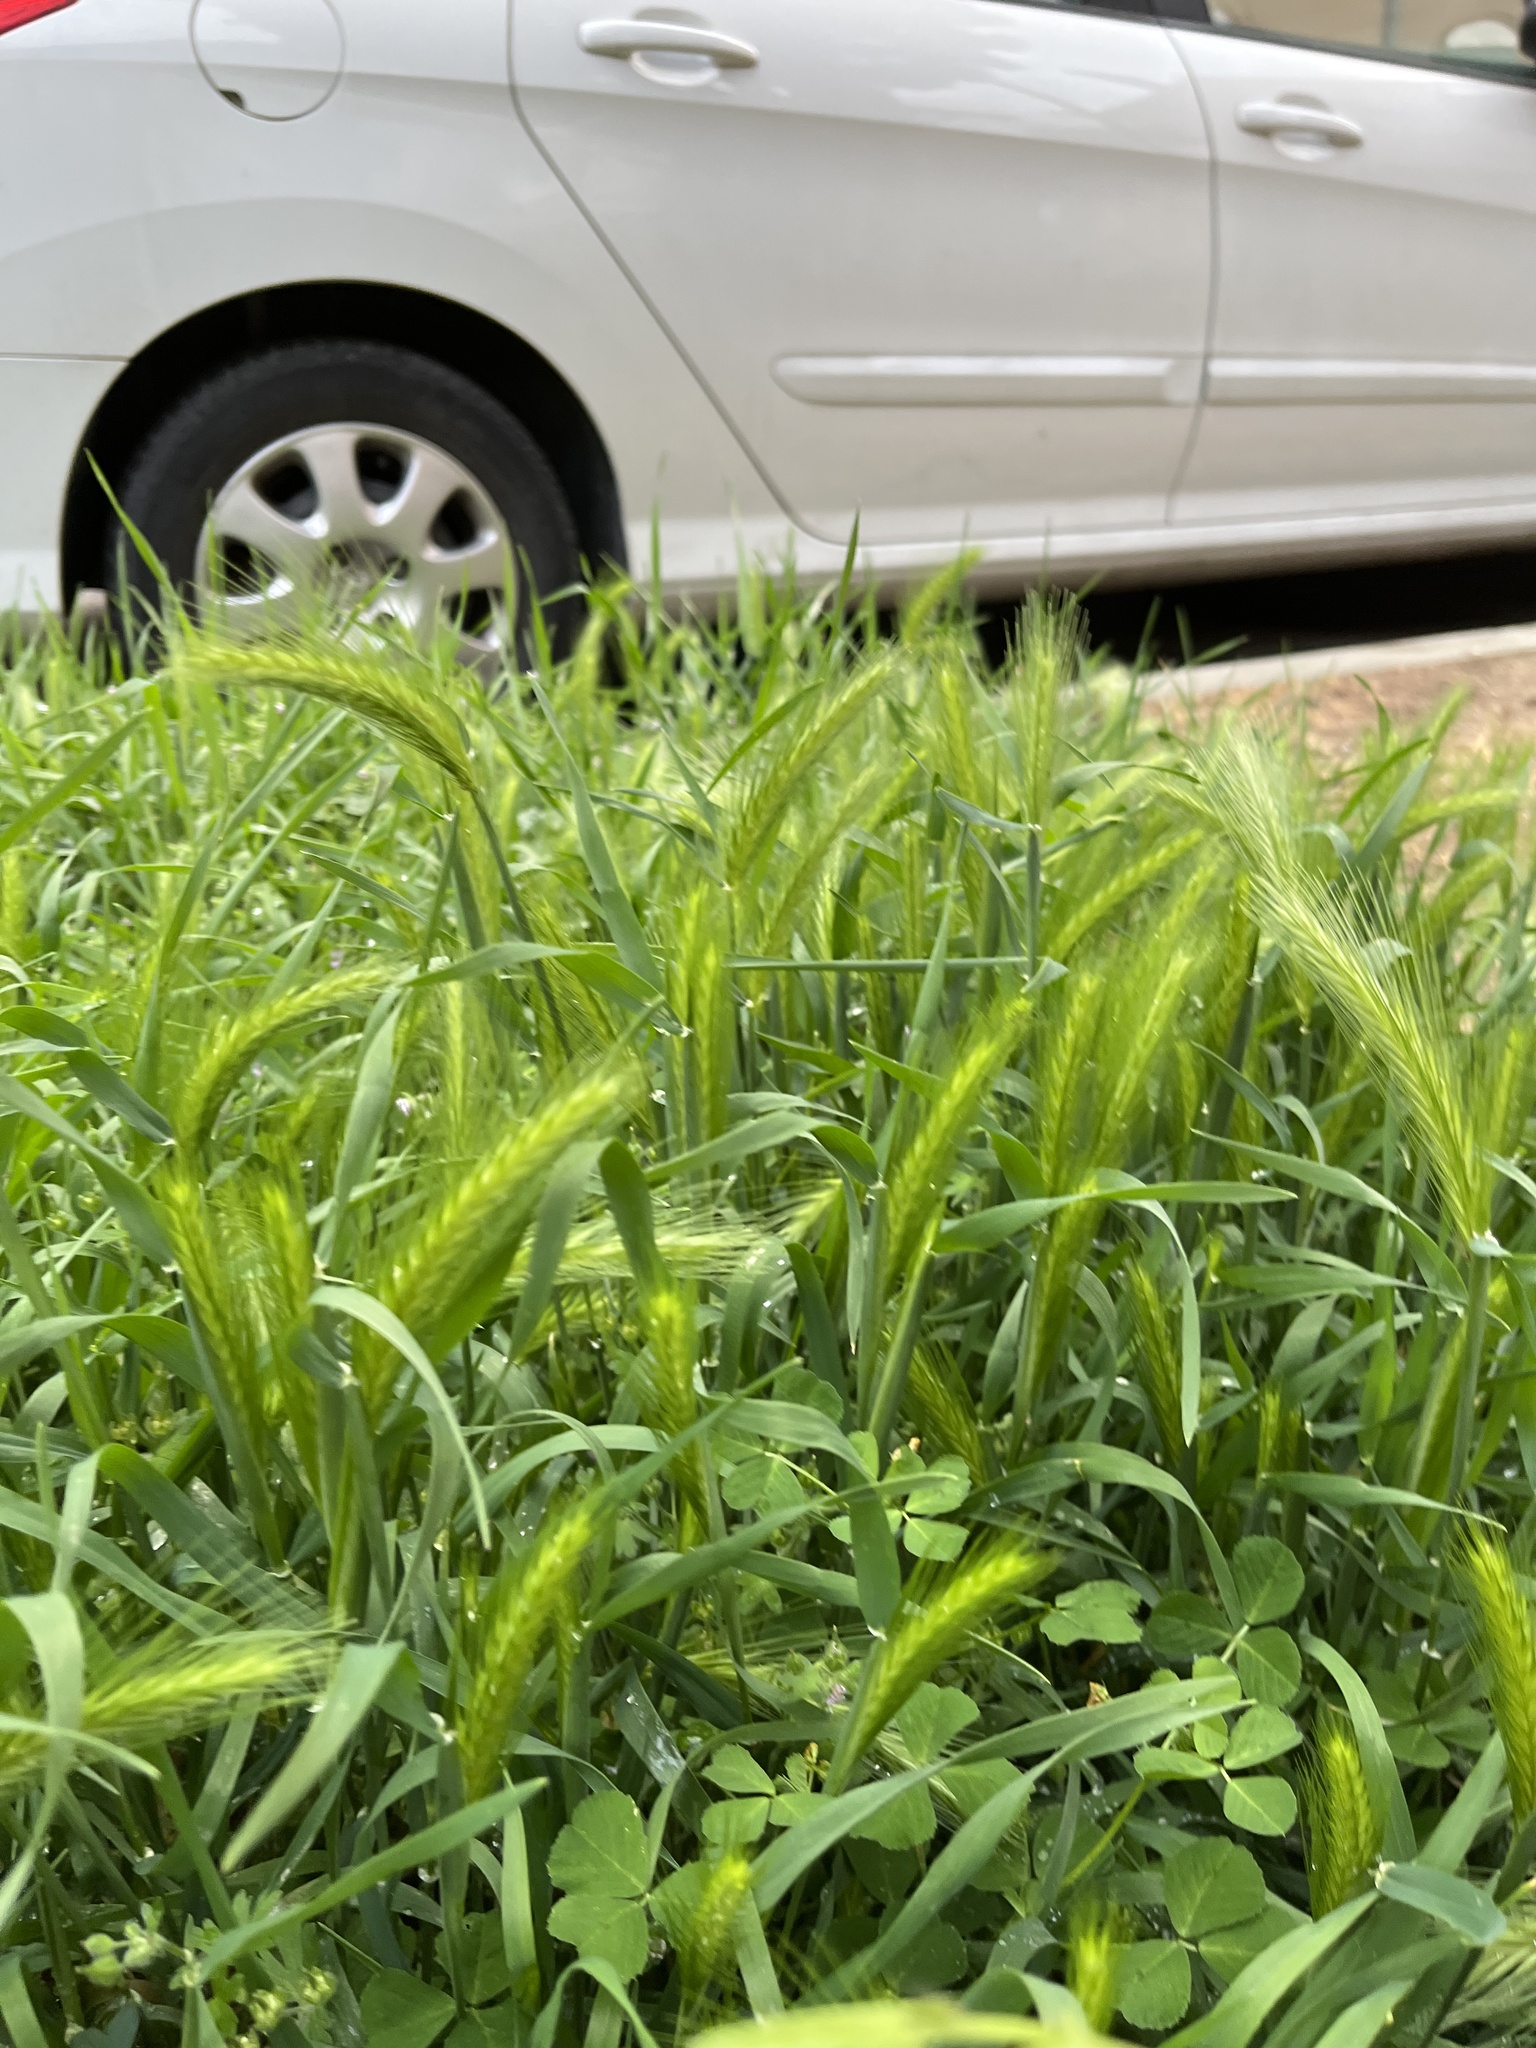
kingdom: Plantae
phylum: Tracheophyta
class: Liliopsida
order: Poales
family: Poaceae
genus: Hordeum
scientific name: Hordeum murinum
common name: Wall barley
